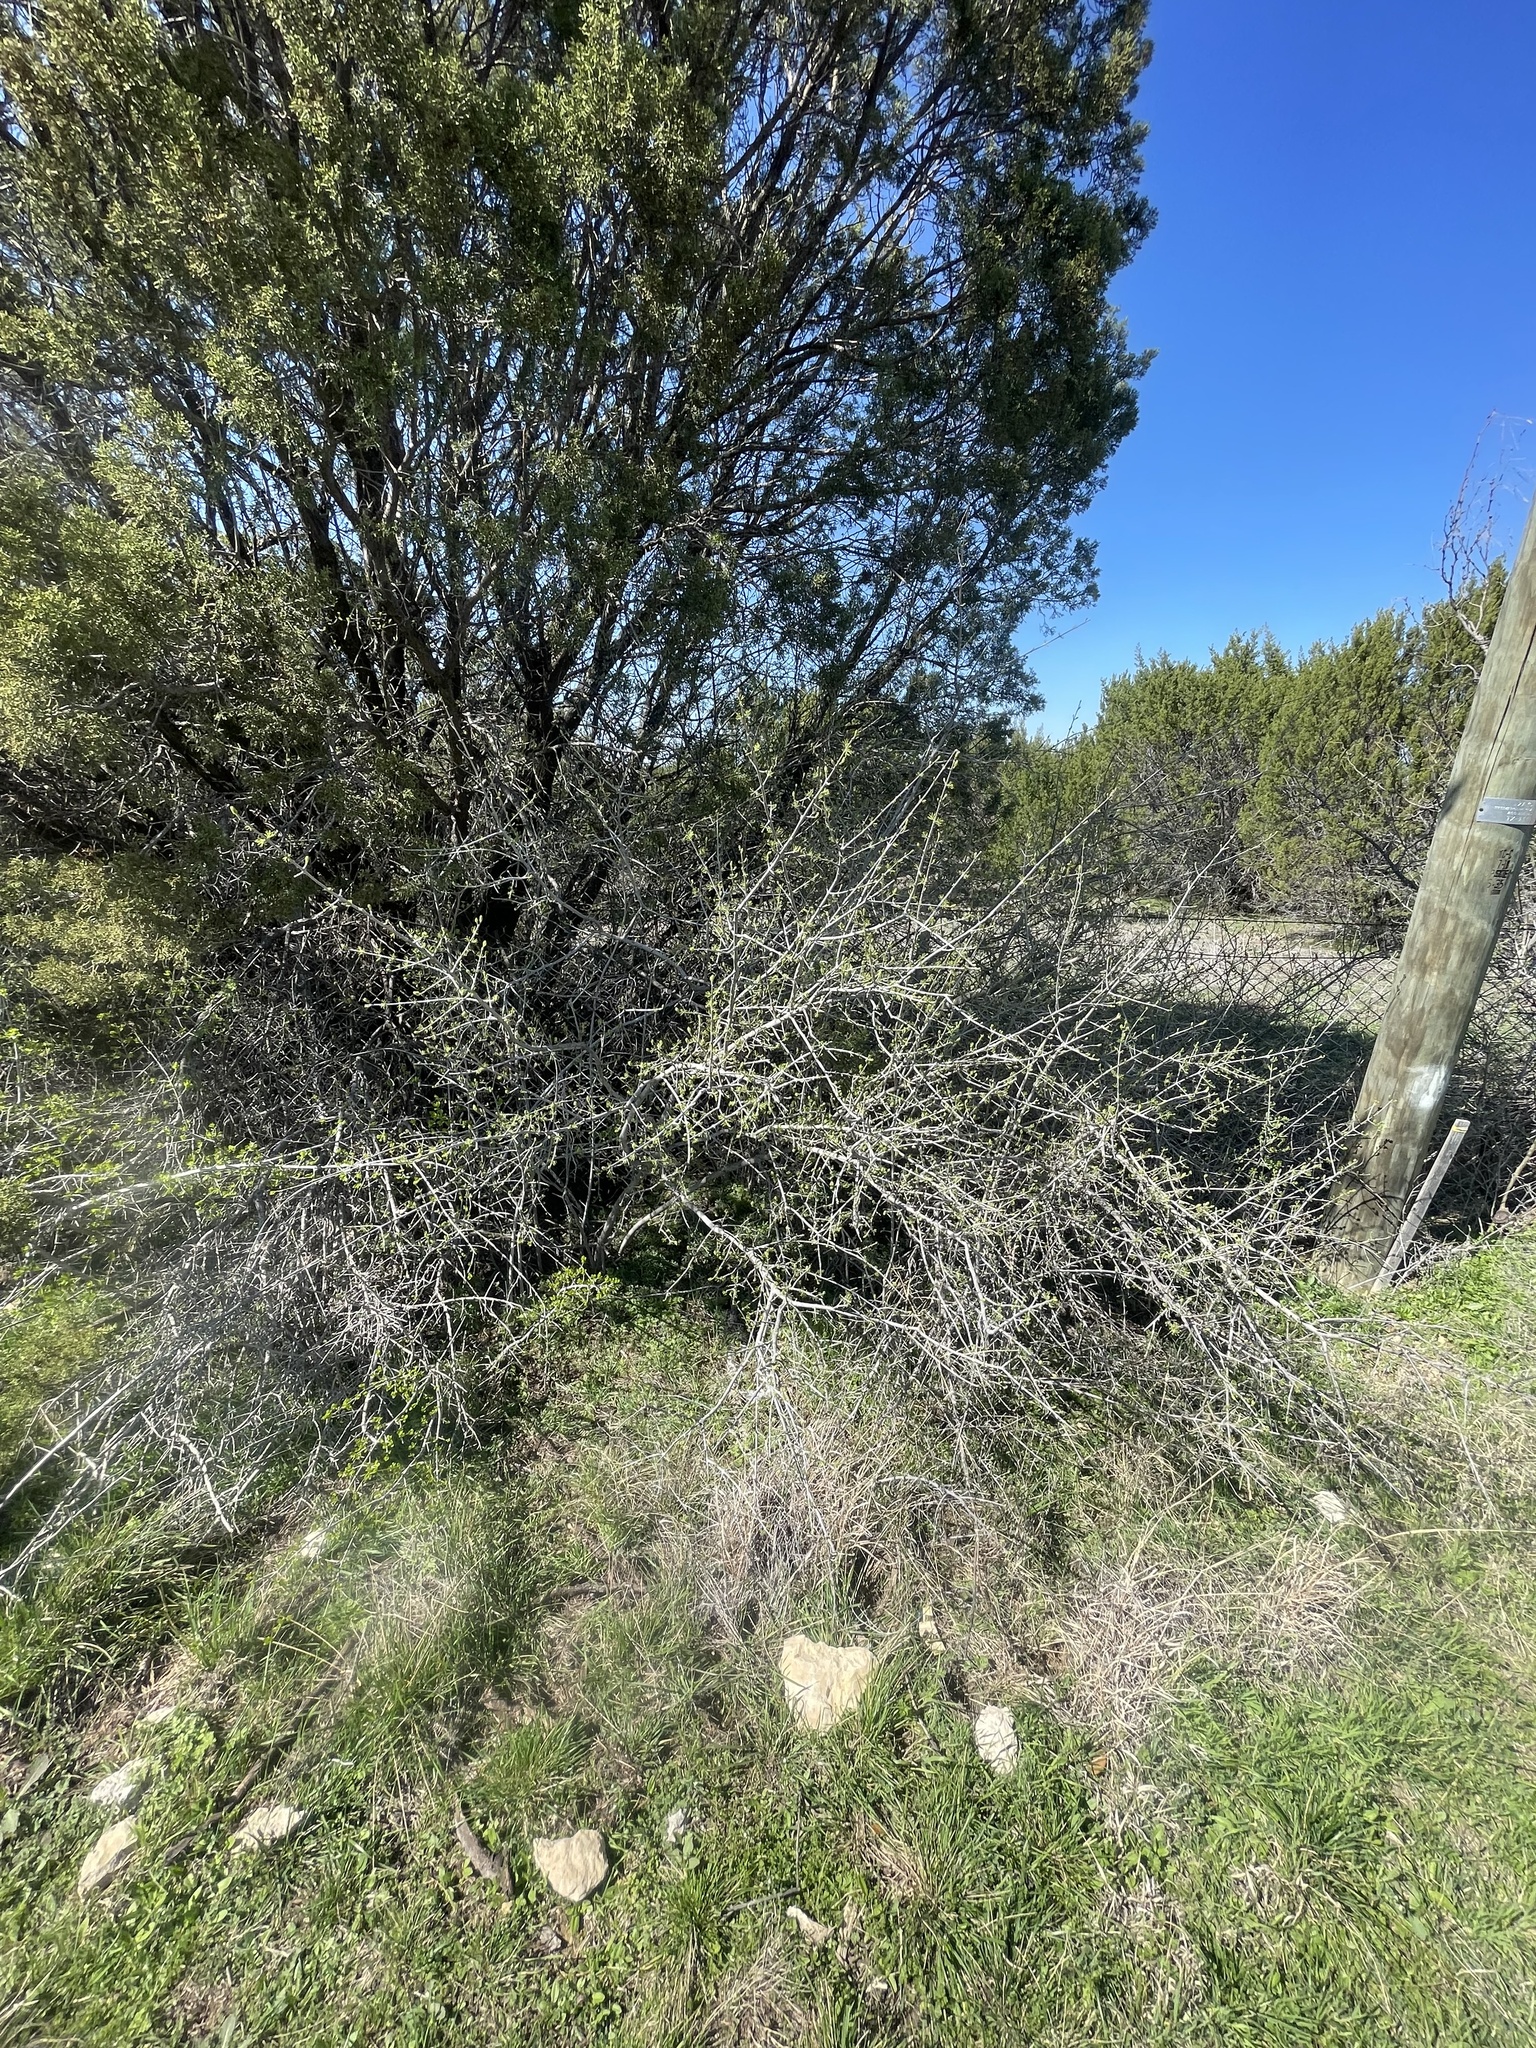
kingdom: Plantae
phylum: Tracheophyta
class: Magnoliopsida
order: Lamiales
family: Oleaceae
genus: Forestiera
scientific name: Forestiera pubescens
